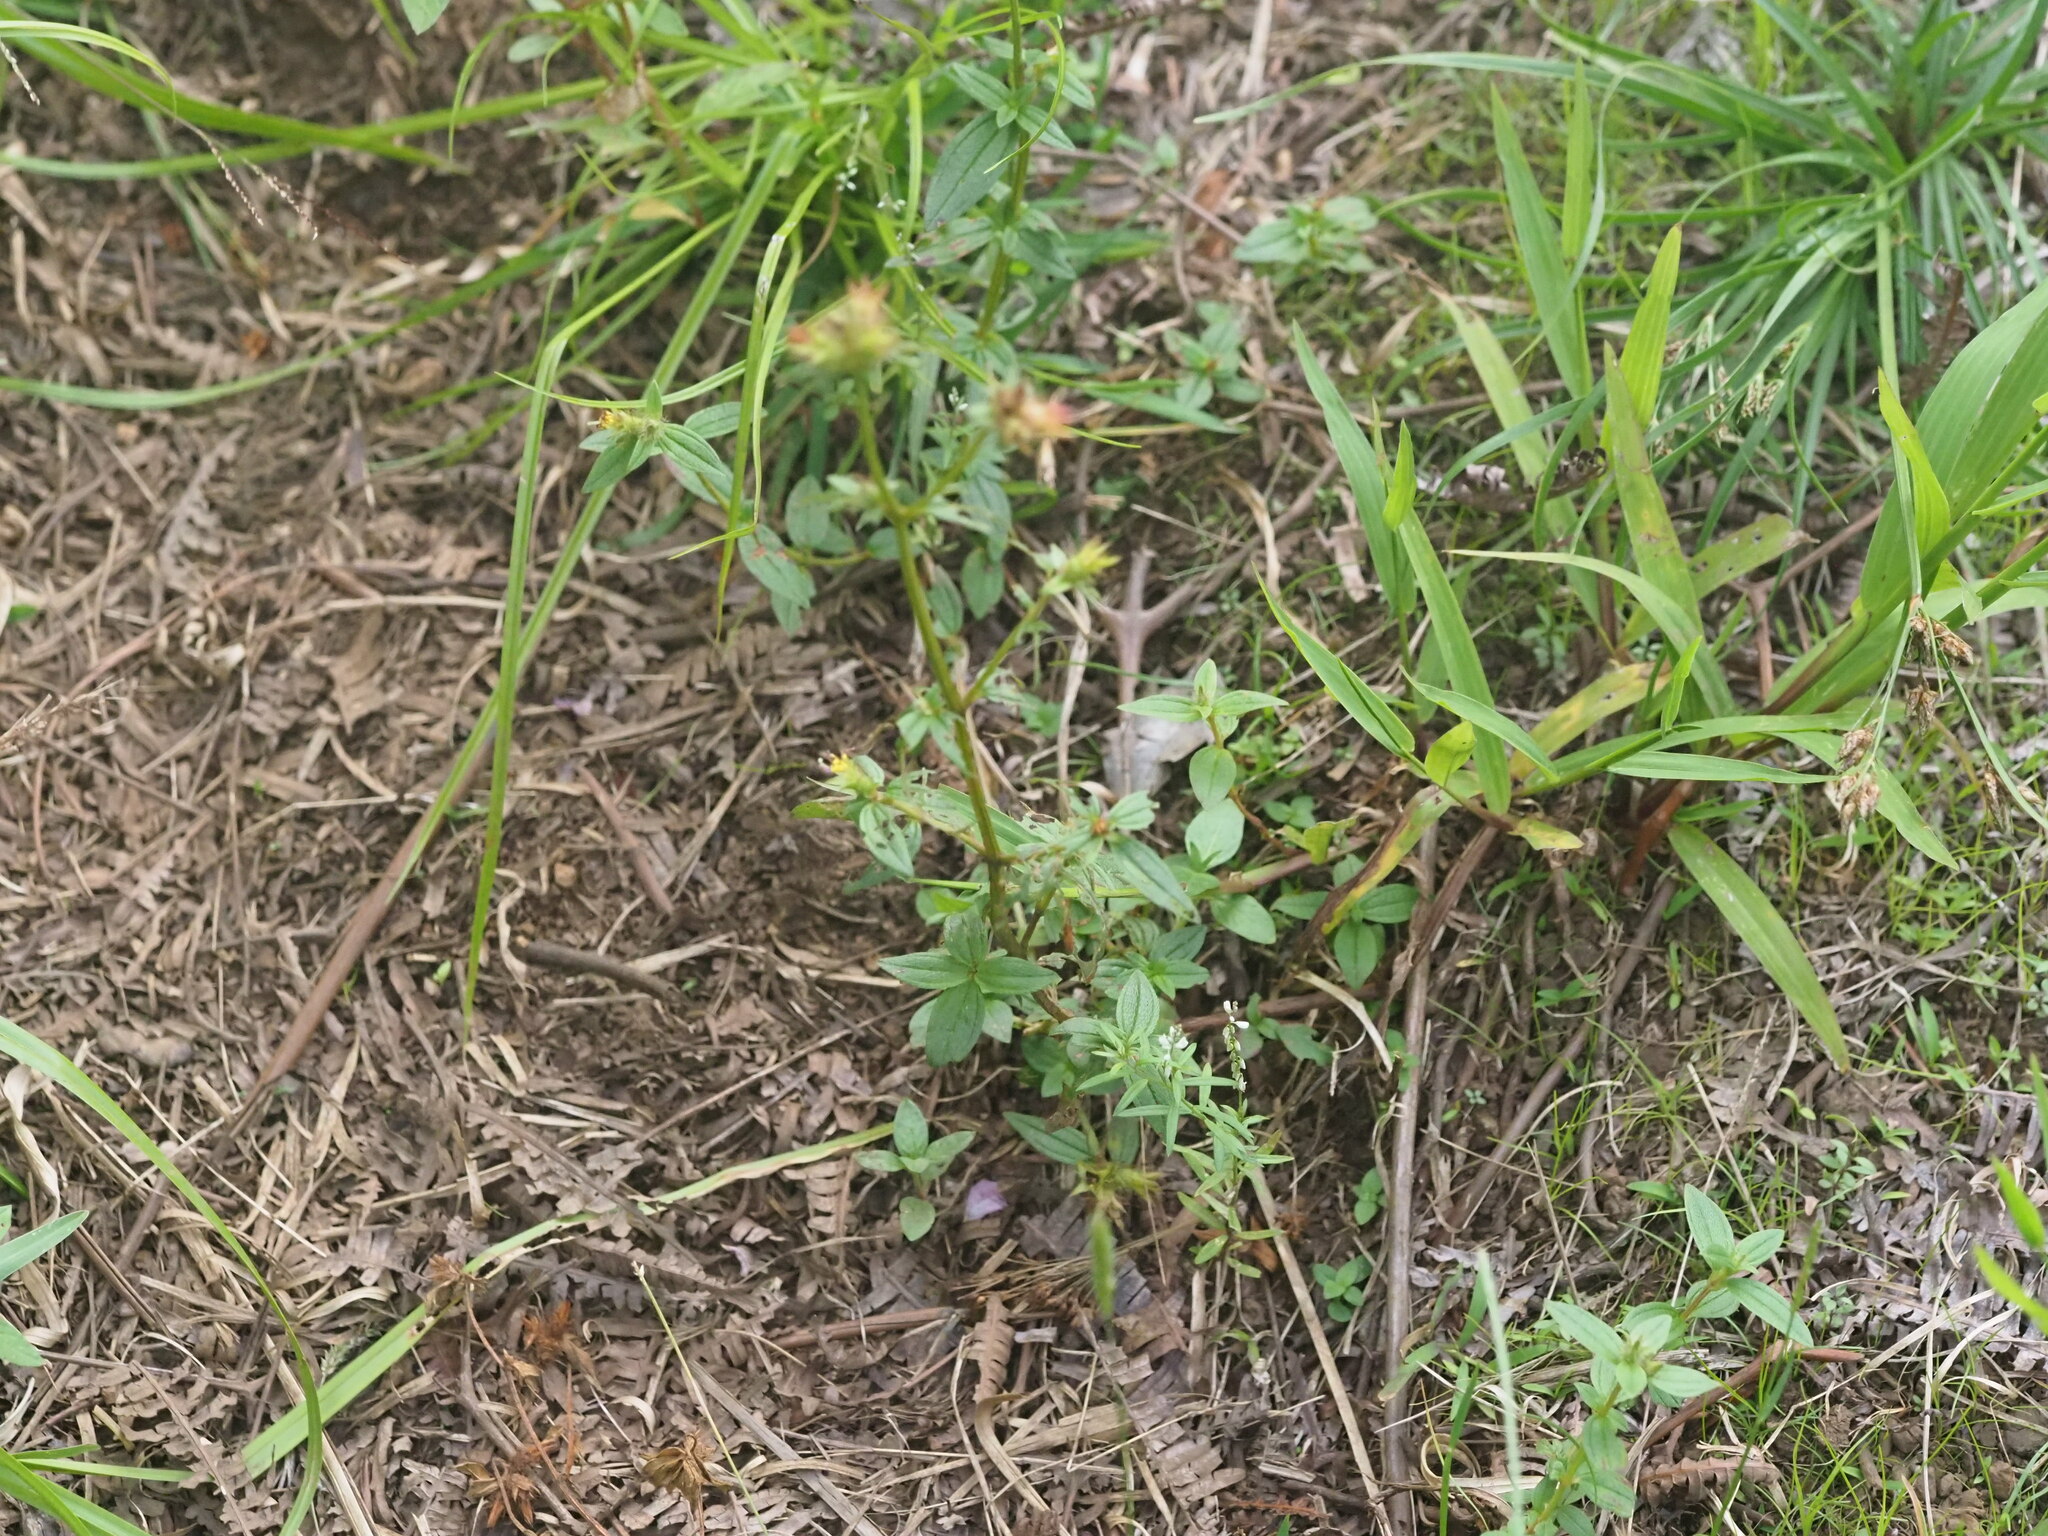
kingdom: Plantae
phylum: Tracheophyta
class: Magnoliopsida
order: Myrtales
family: Melastomataceae
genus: Pterolepis
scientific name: Pterolepis glomerata
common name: False meadowbeauty
